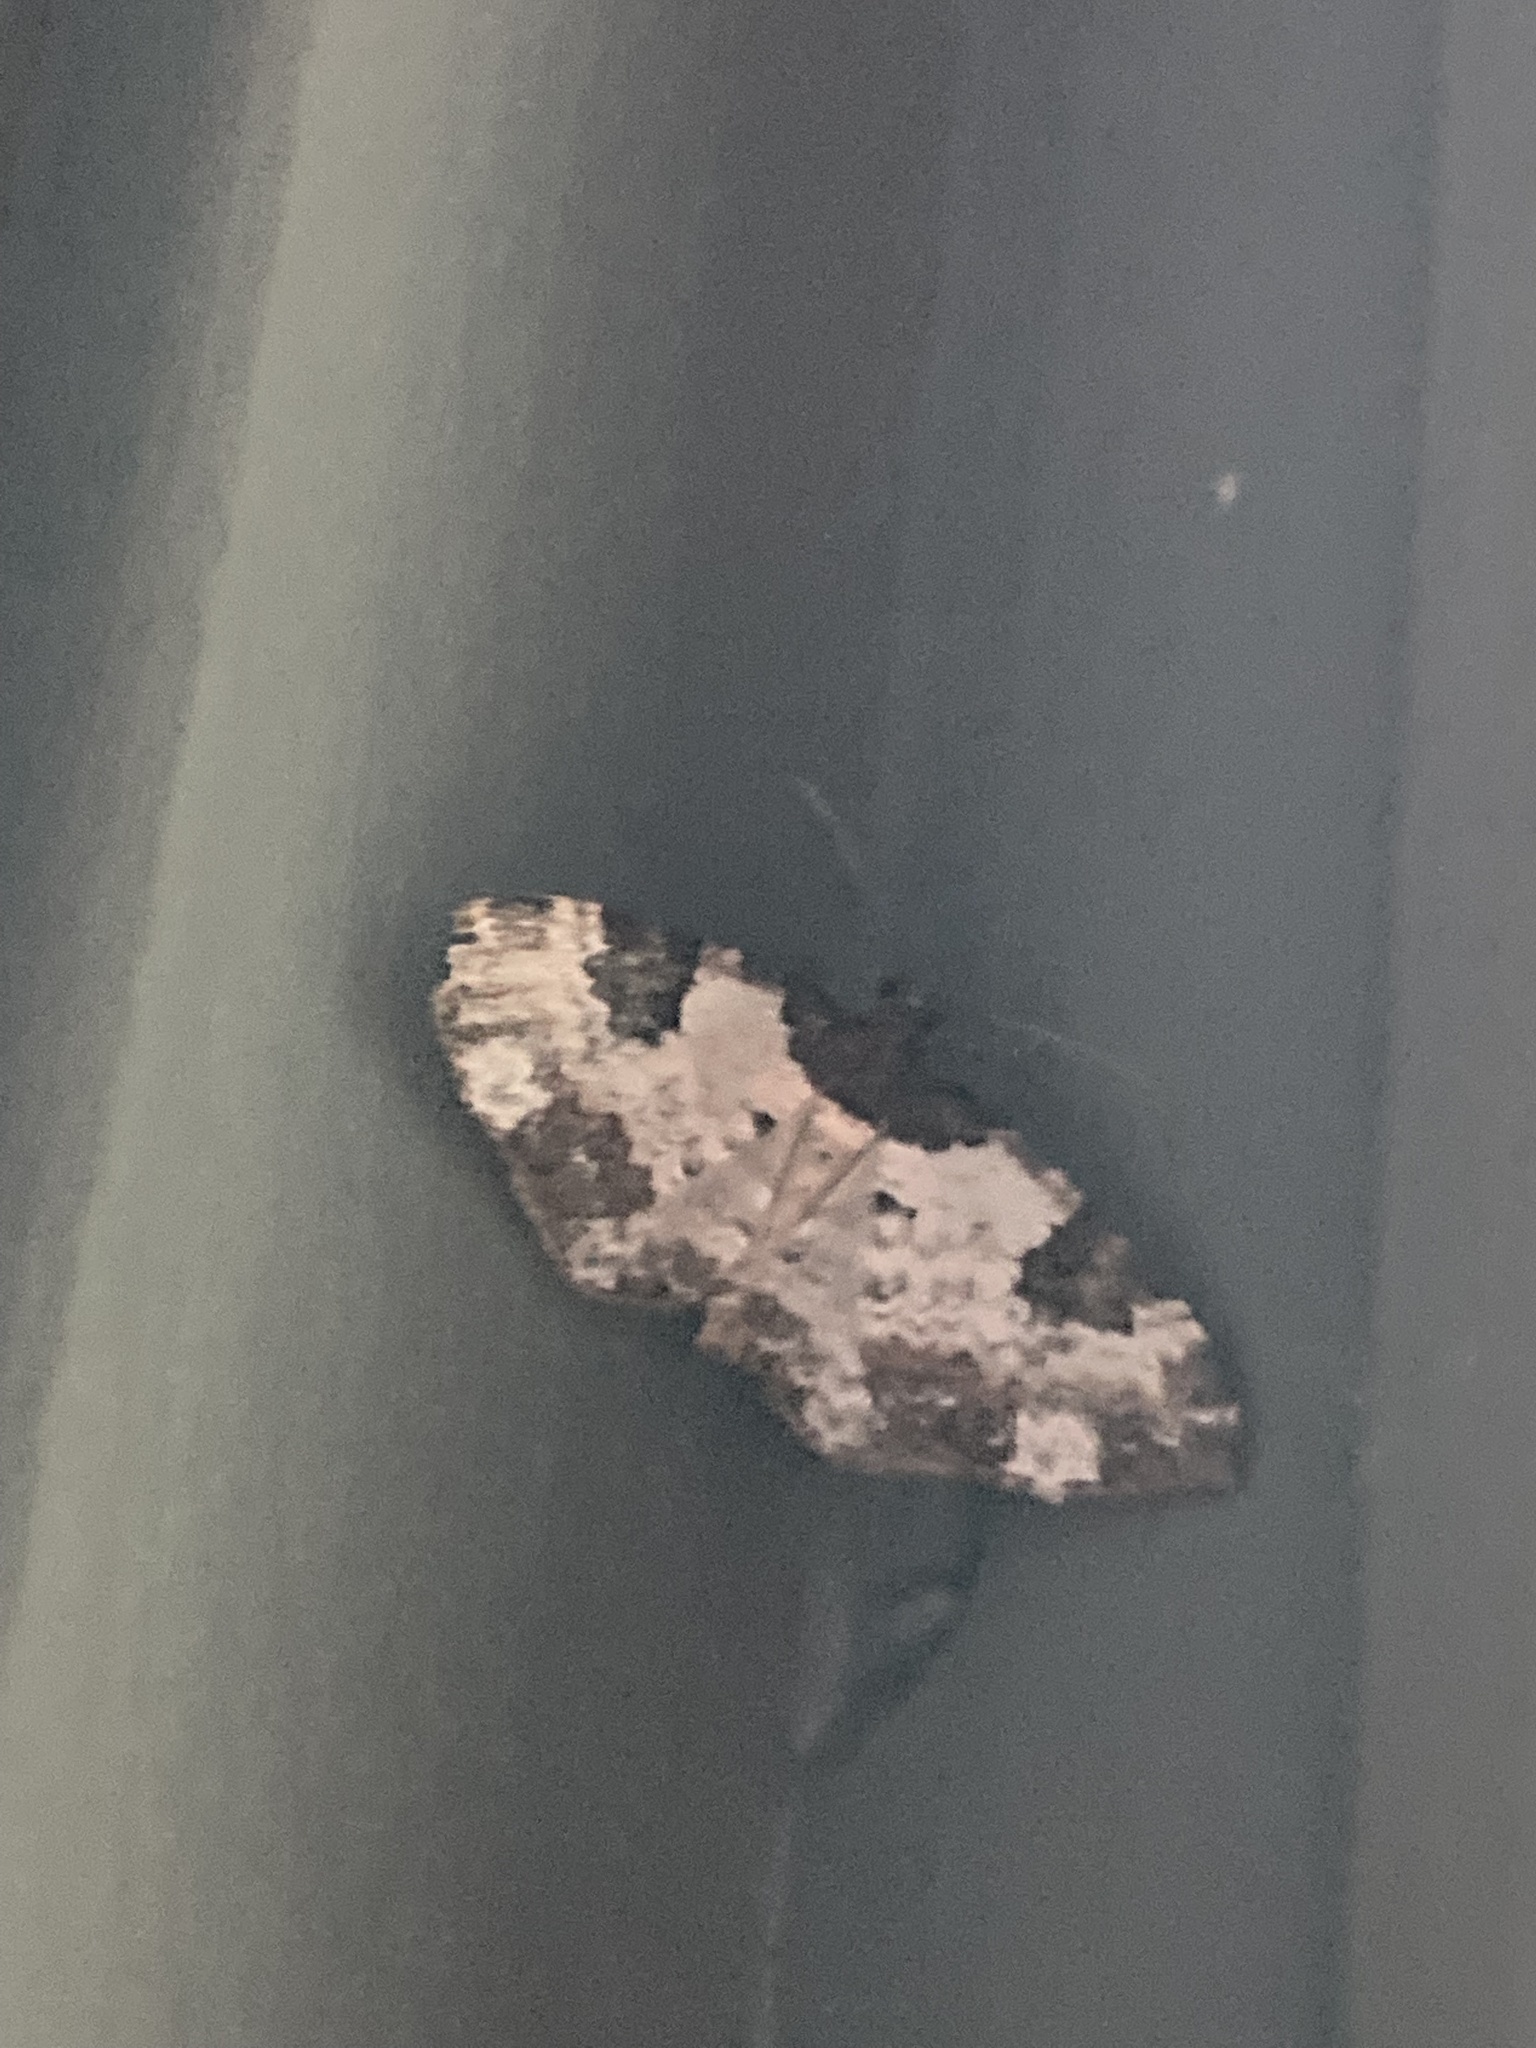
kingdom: Animalia
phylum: Arthropoda
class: Insecta
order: Lepidoptera
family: Geometridae
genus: Melanthia
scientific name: Melanthia procellata
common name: Pretty chalk carpet
